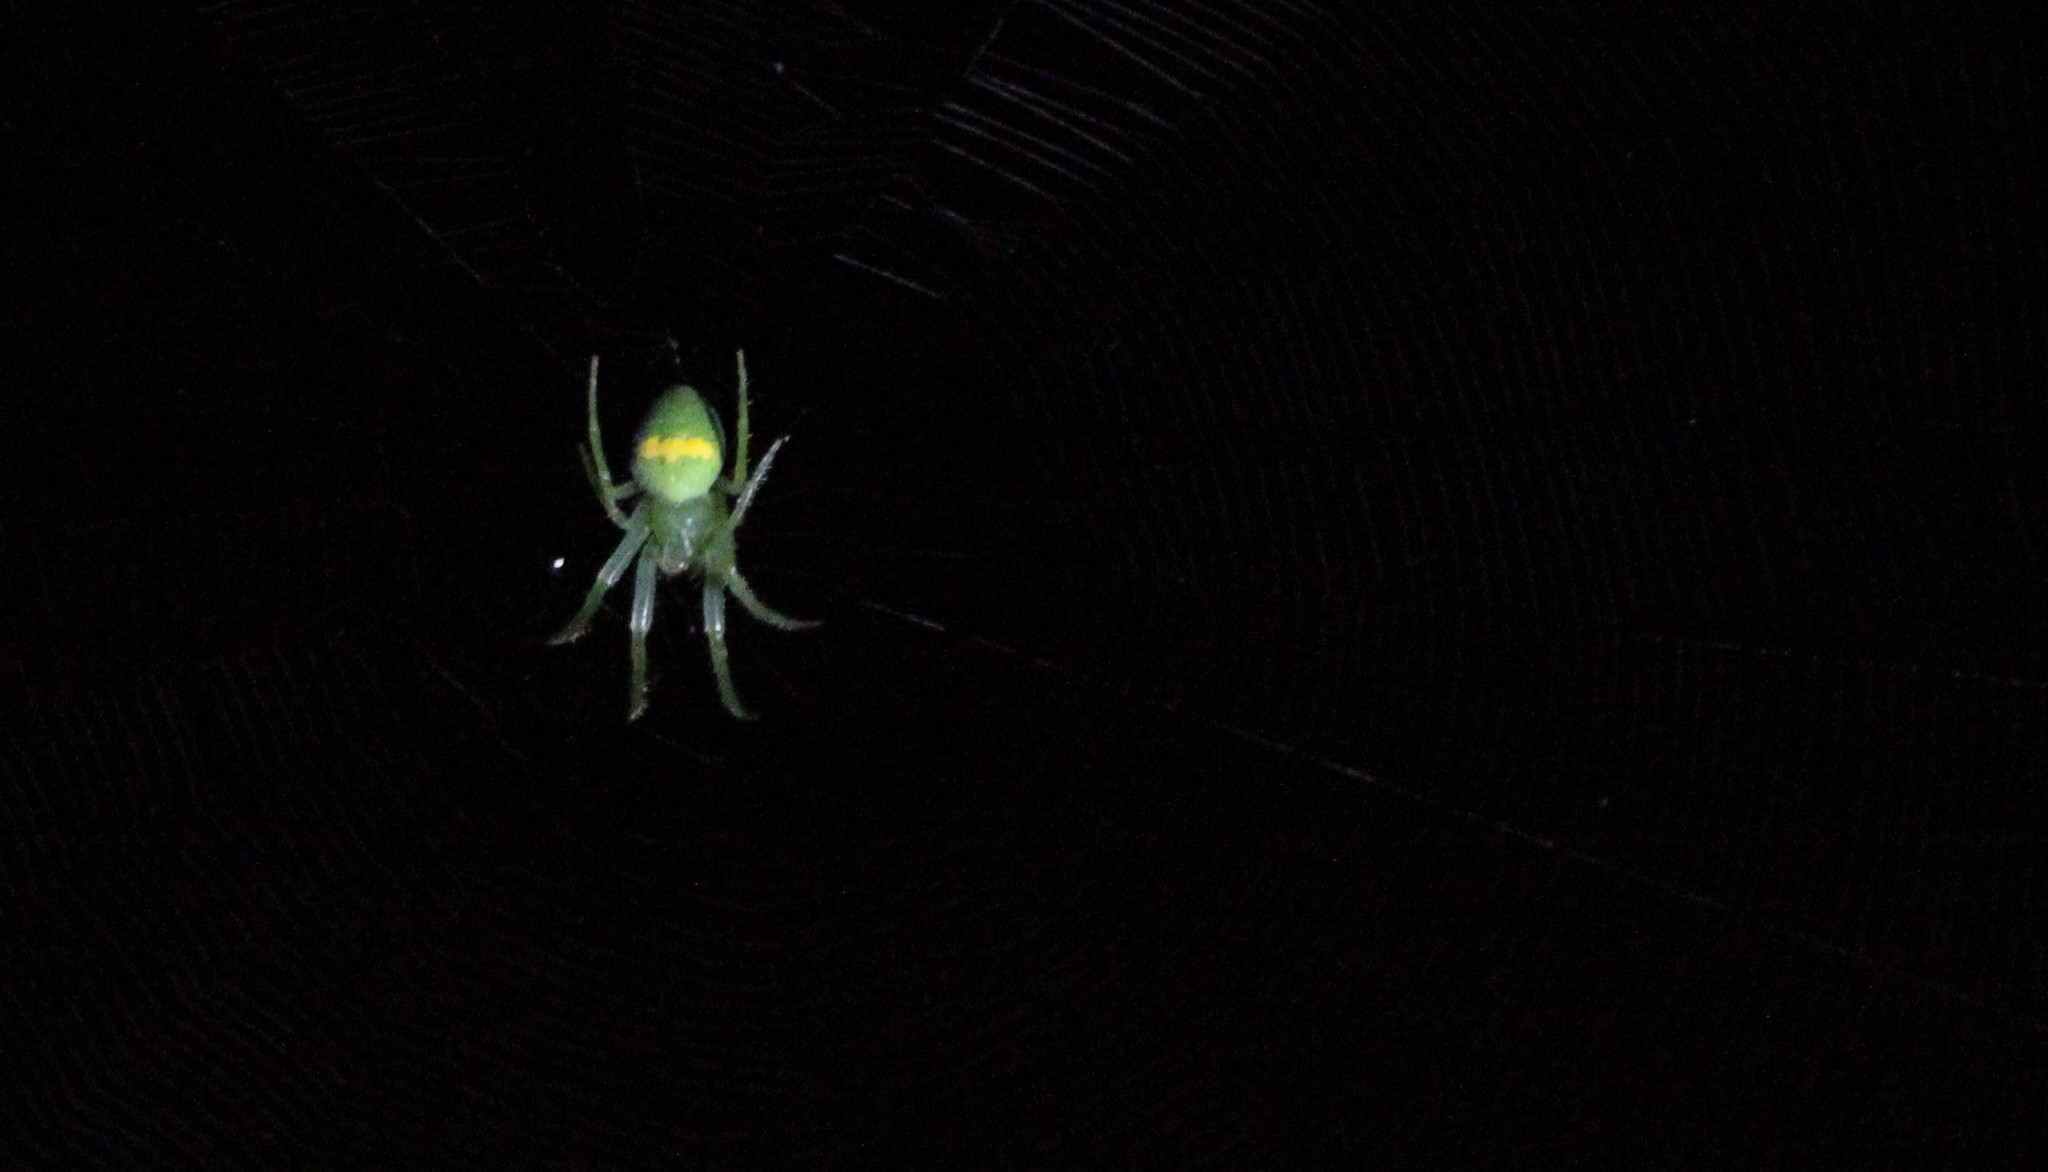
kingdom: Animalia
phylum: Arthropoda
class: Arachnida
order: Araneae
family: Araneidae
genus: Araneus
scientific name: Araneus uniformis
